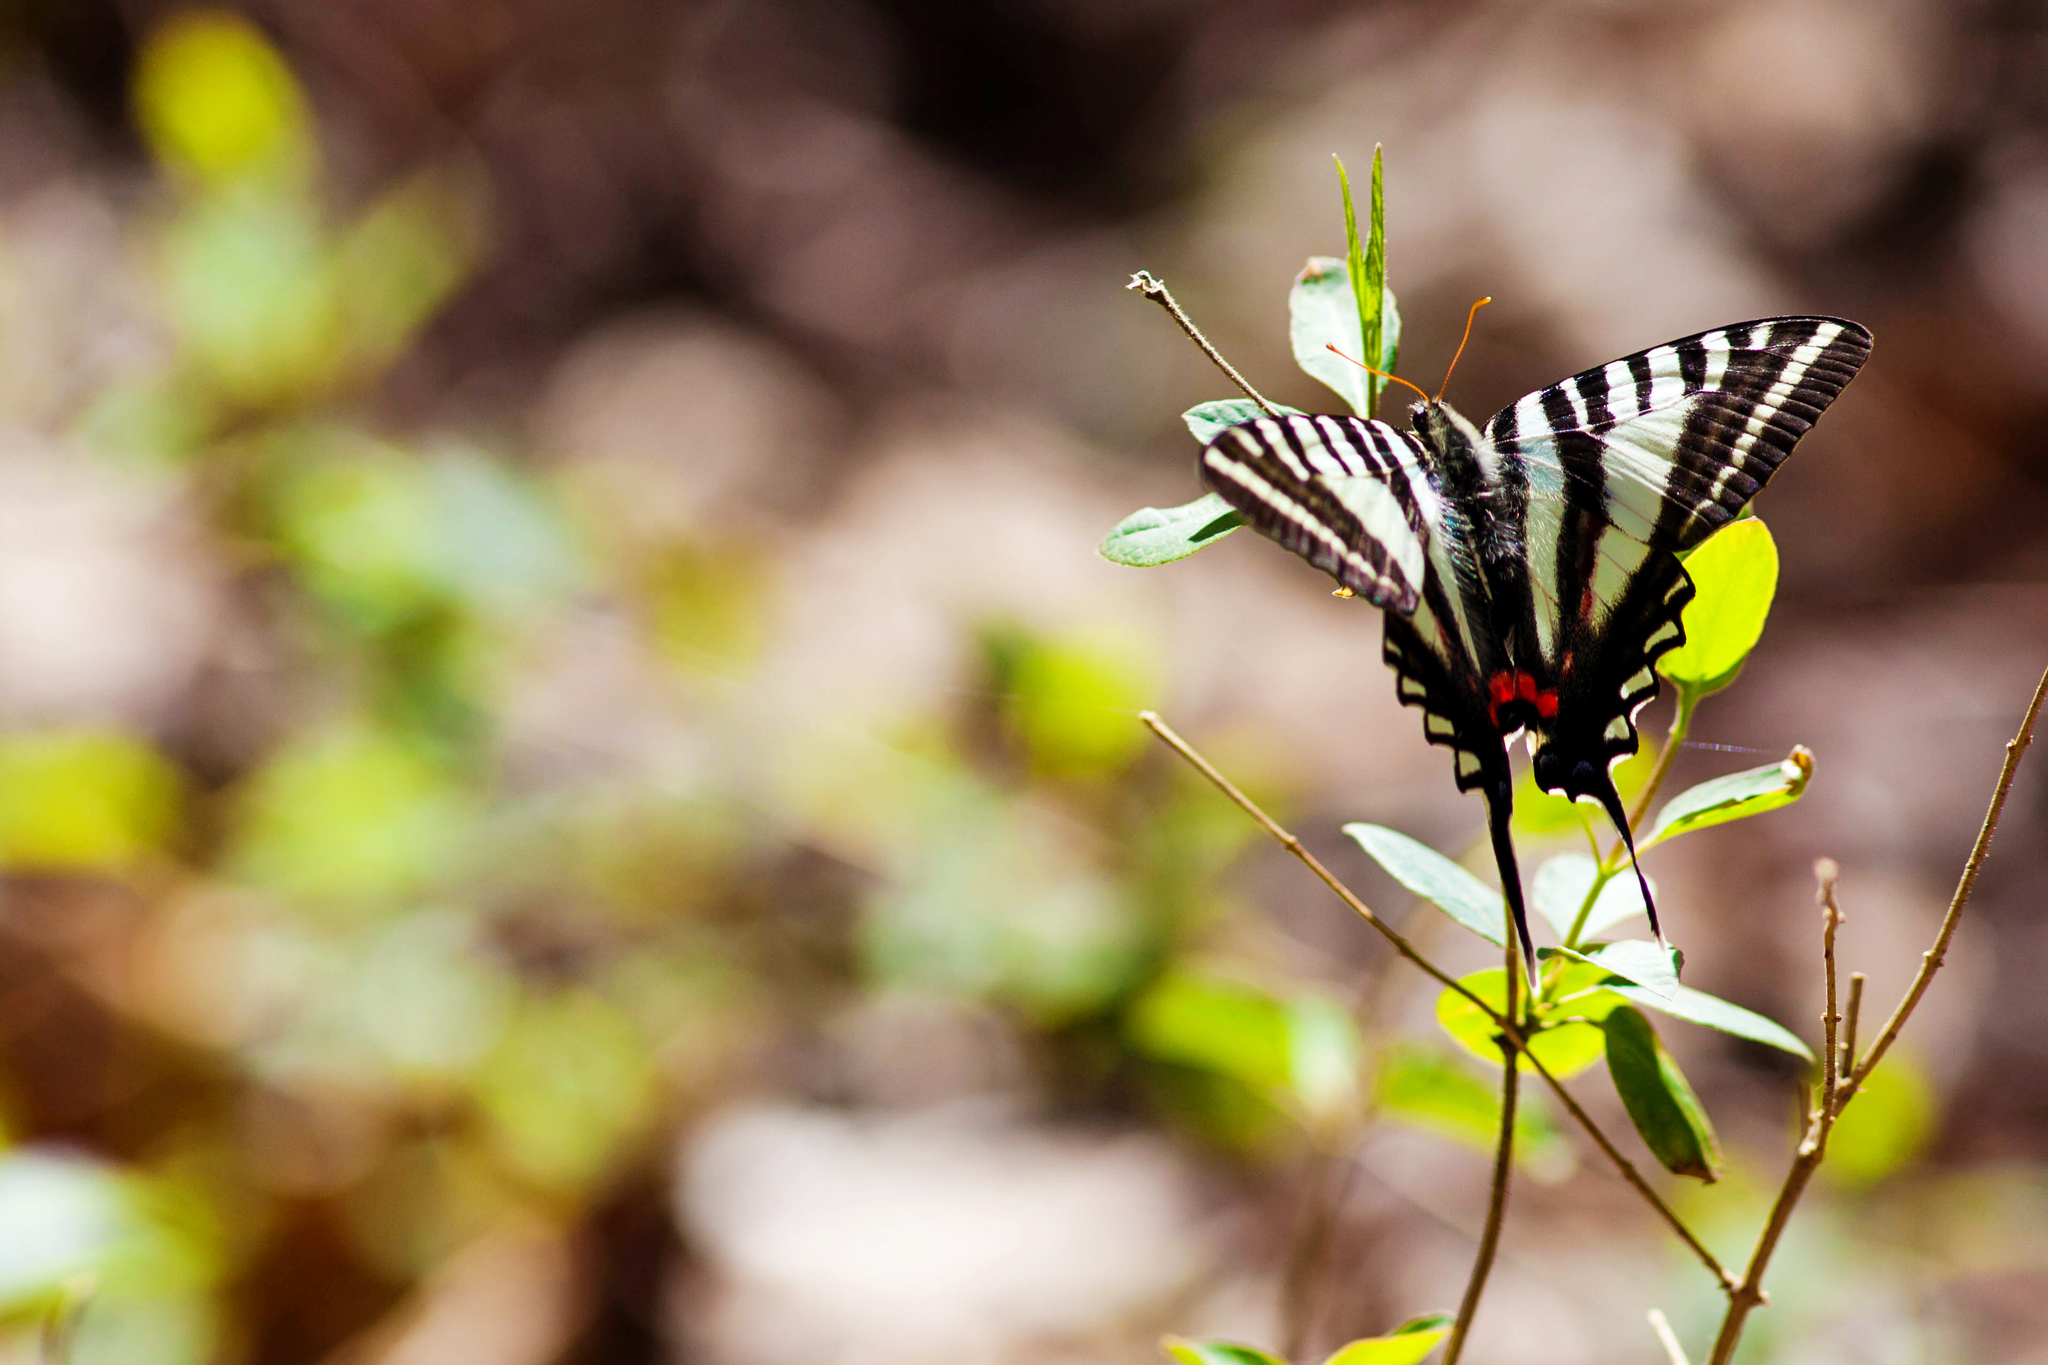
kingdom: Animalia
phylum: Arthropoda
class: Insecta
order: Lepidoptera
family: Papilionidae
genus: Protographium
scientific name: Protographium marcellus
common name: Zebra swallowtail
